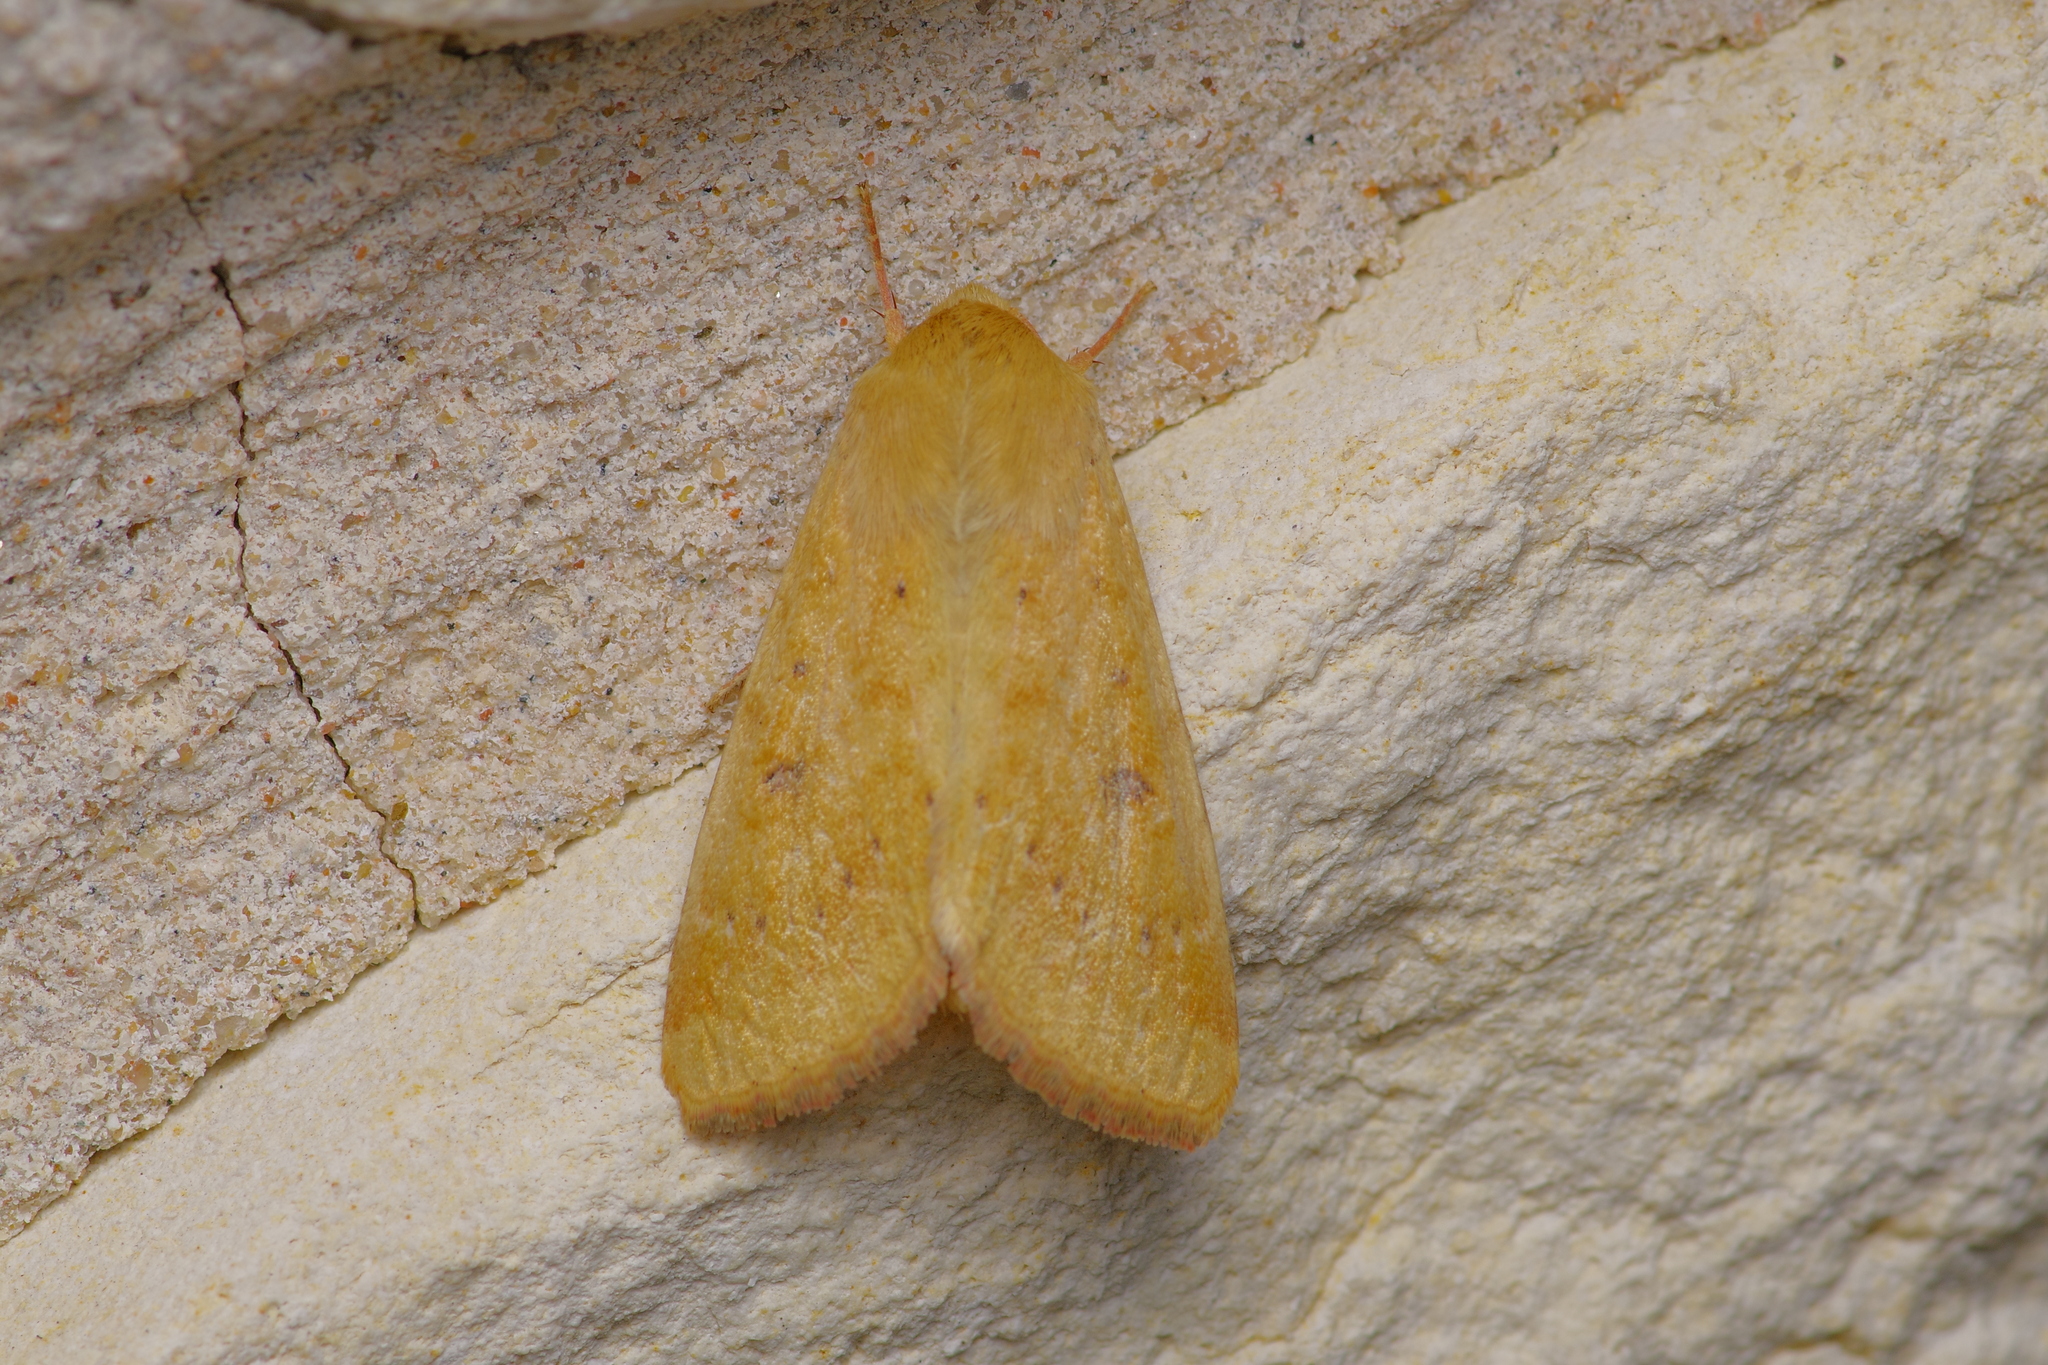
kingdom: Animalia
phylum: Arthropoda
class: Insecta
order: Lepidoptera
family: Noctuidae
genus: Helicoverpa
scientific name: Helicoverpa zea
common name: Bollworm
